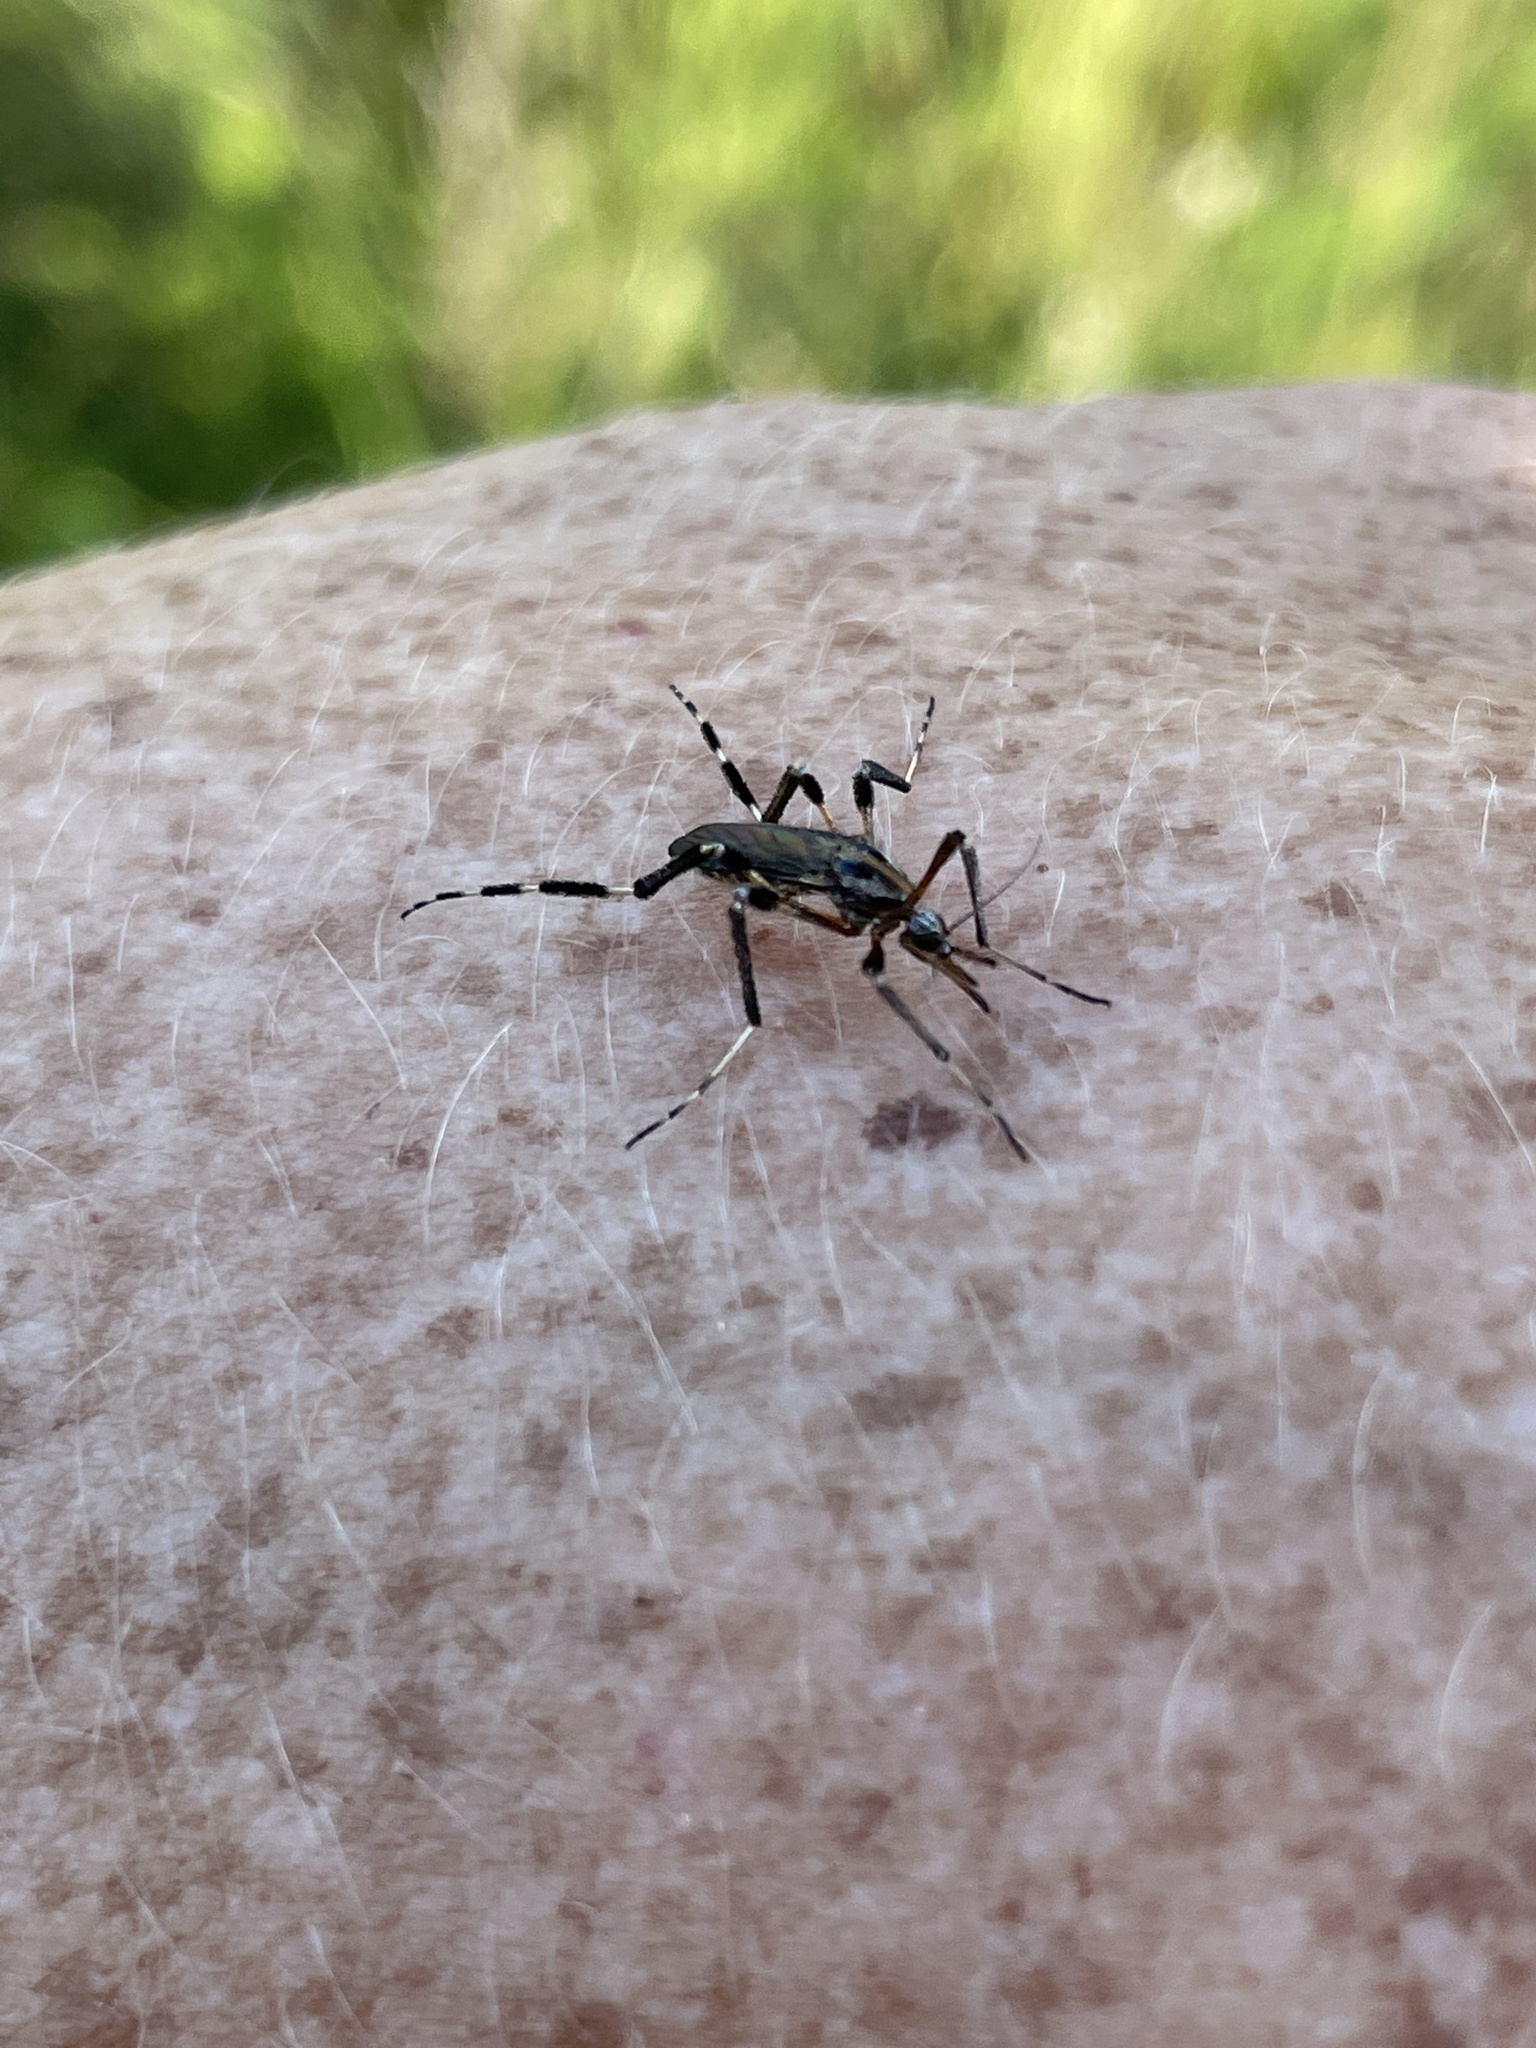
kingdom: Animalia
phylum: Arthropoda
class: Insecta
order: Diptera
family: Culicidae
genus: Psorophora
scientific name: Psorophora ciliata
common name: Gallinipper
